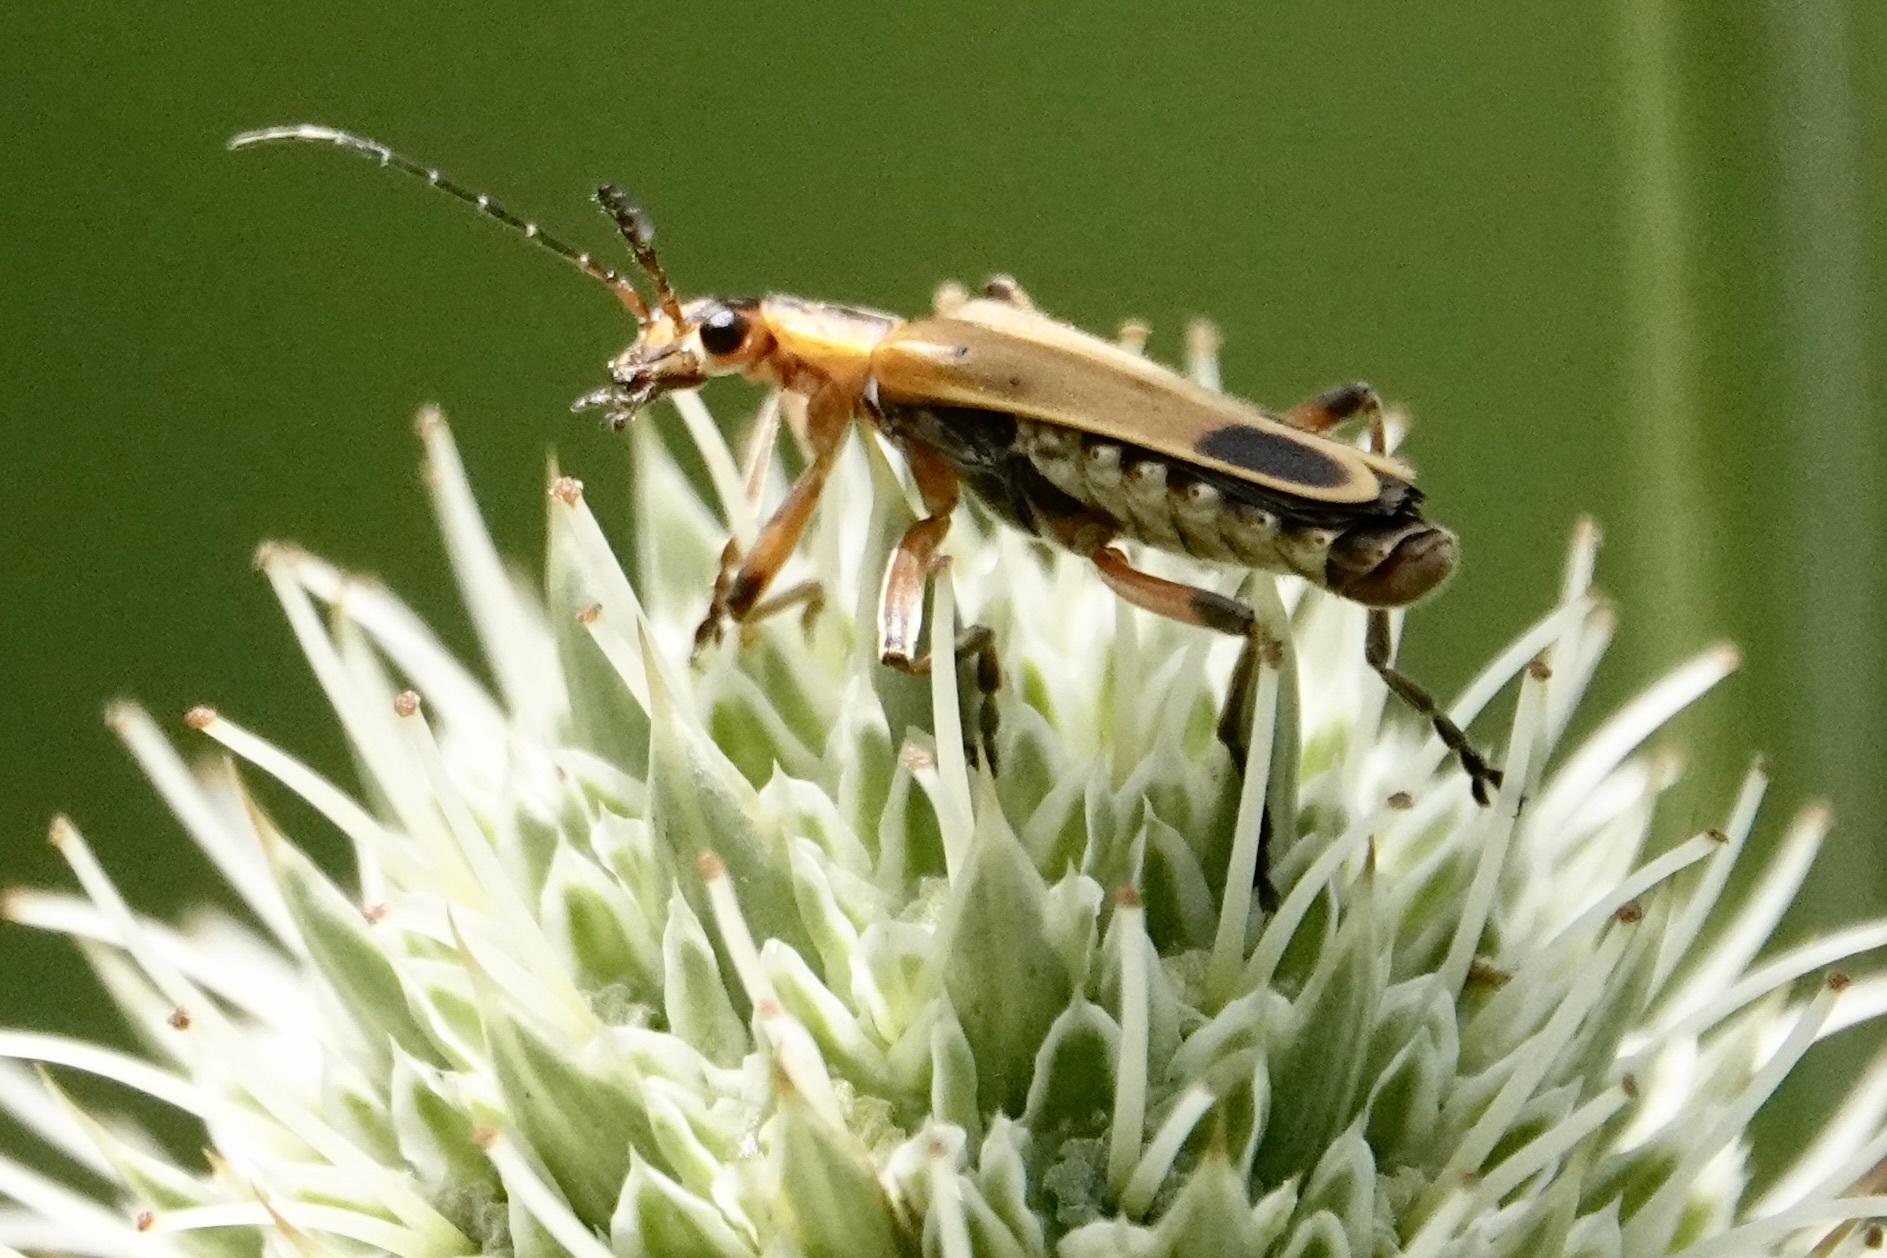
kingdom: Animalia
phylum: Arthropoda
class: Insecta
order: Coleoptera
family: Cantharidae
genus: Chauliognathus
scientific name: Chauliognathus marginatus
